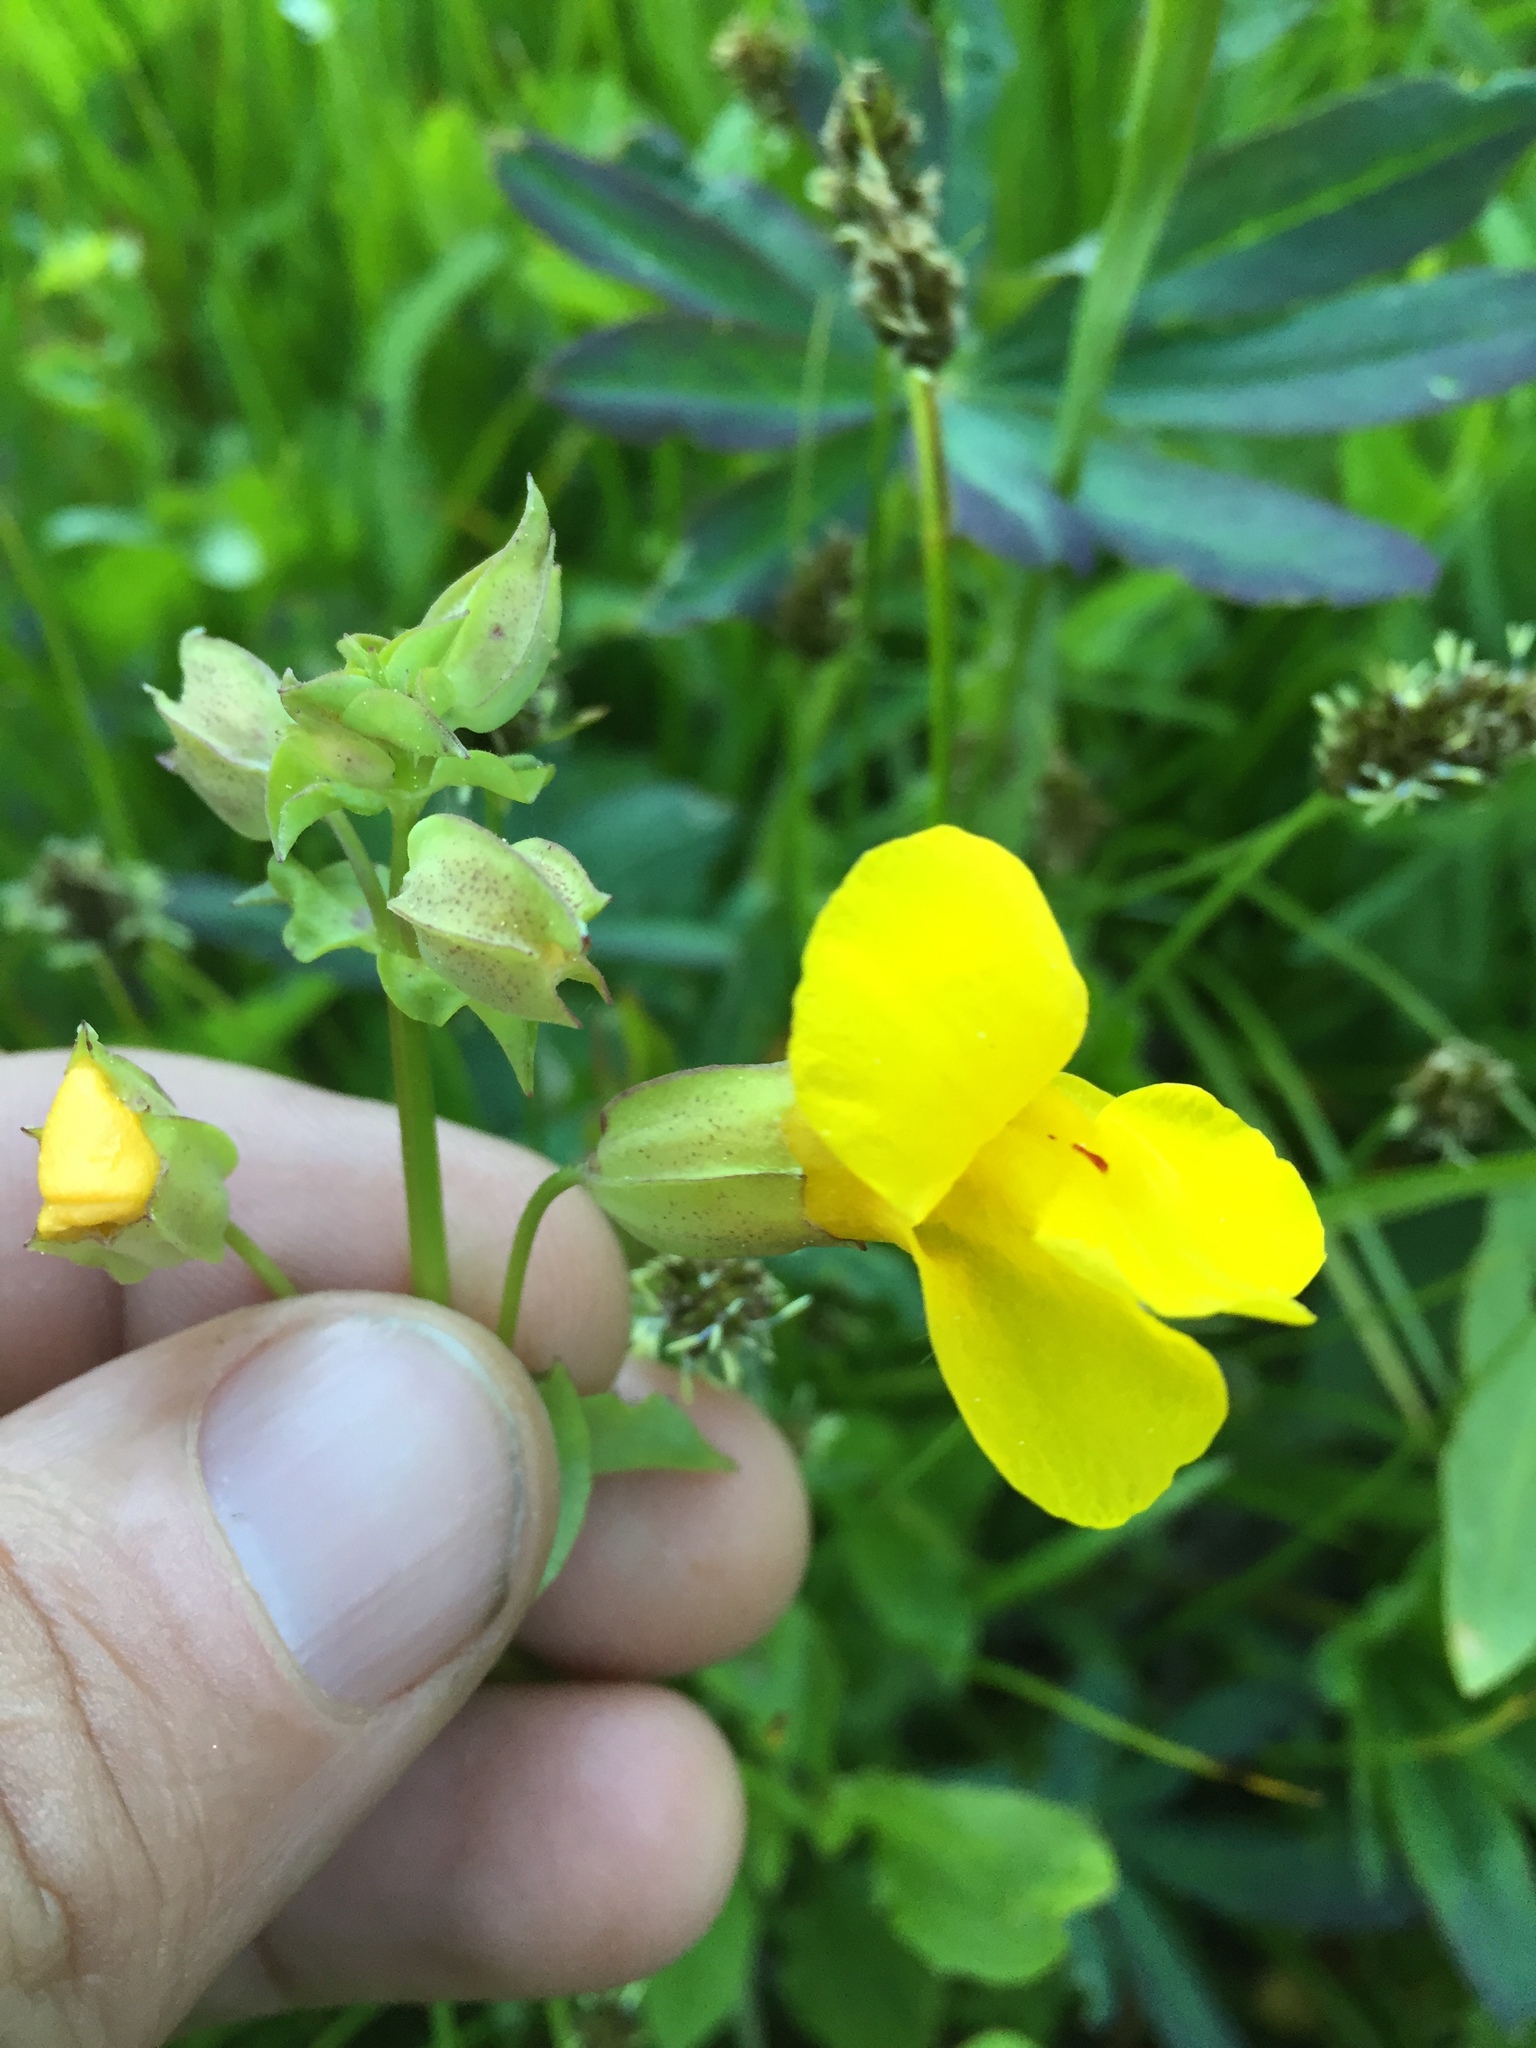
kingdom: Plantae
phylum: Tracheophyta
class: Magnoliopsida
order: Lamiales
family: Phrymaceae
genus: Erythranthe
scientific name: Erythranthe guttata
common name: Monkeyflower
